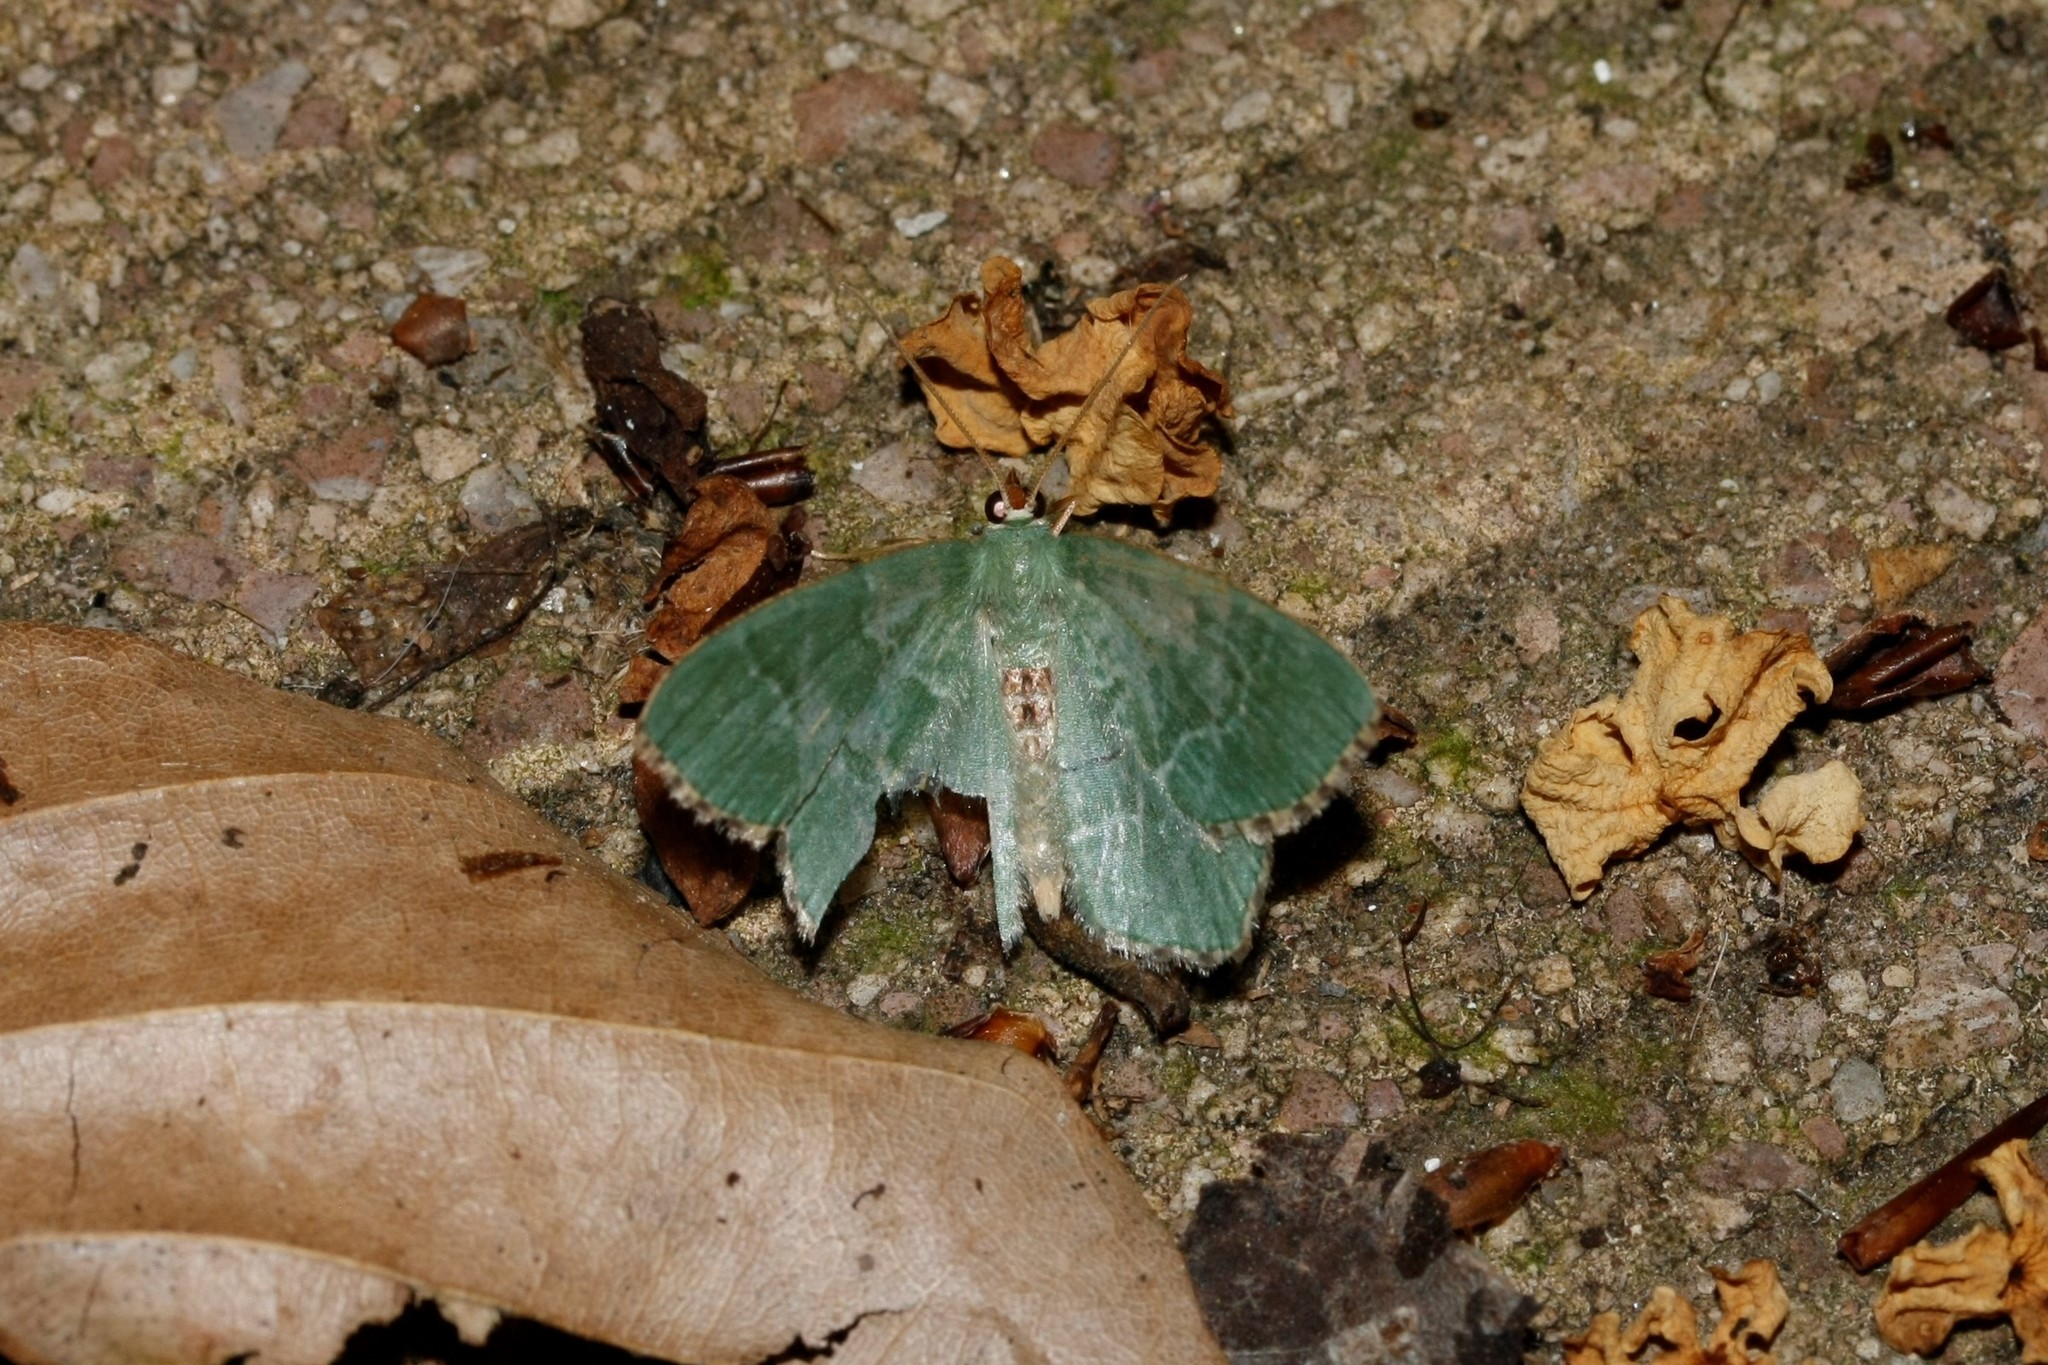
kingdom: Animalia
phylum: Arthropoda
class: Insecta
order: Lepidoptera
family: Geometridae
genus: Hemithea
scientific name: Hemithea aestivaria
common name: Common emerald
